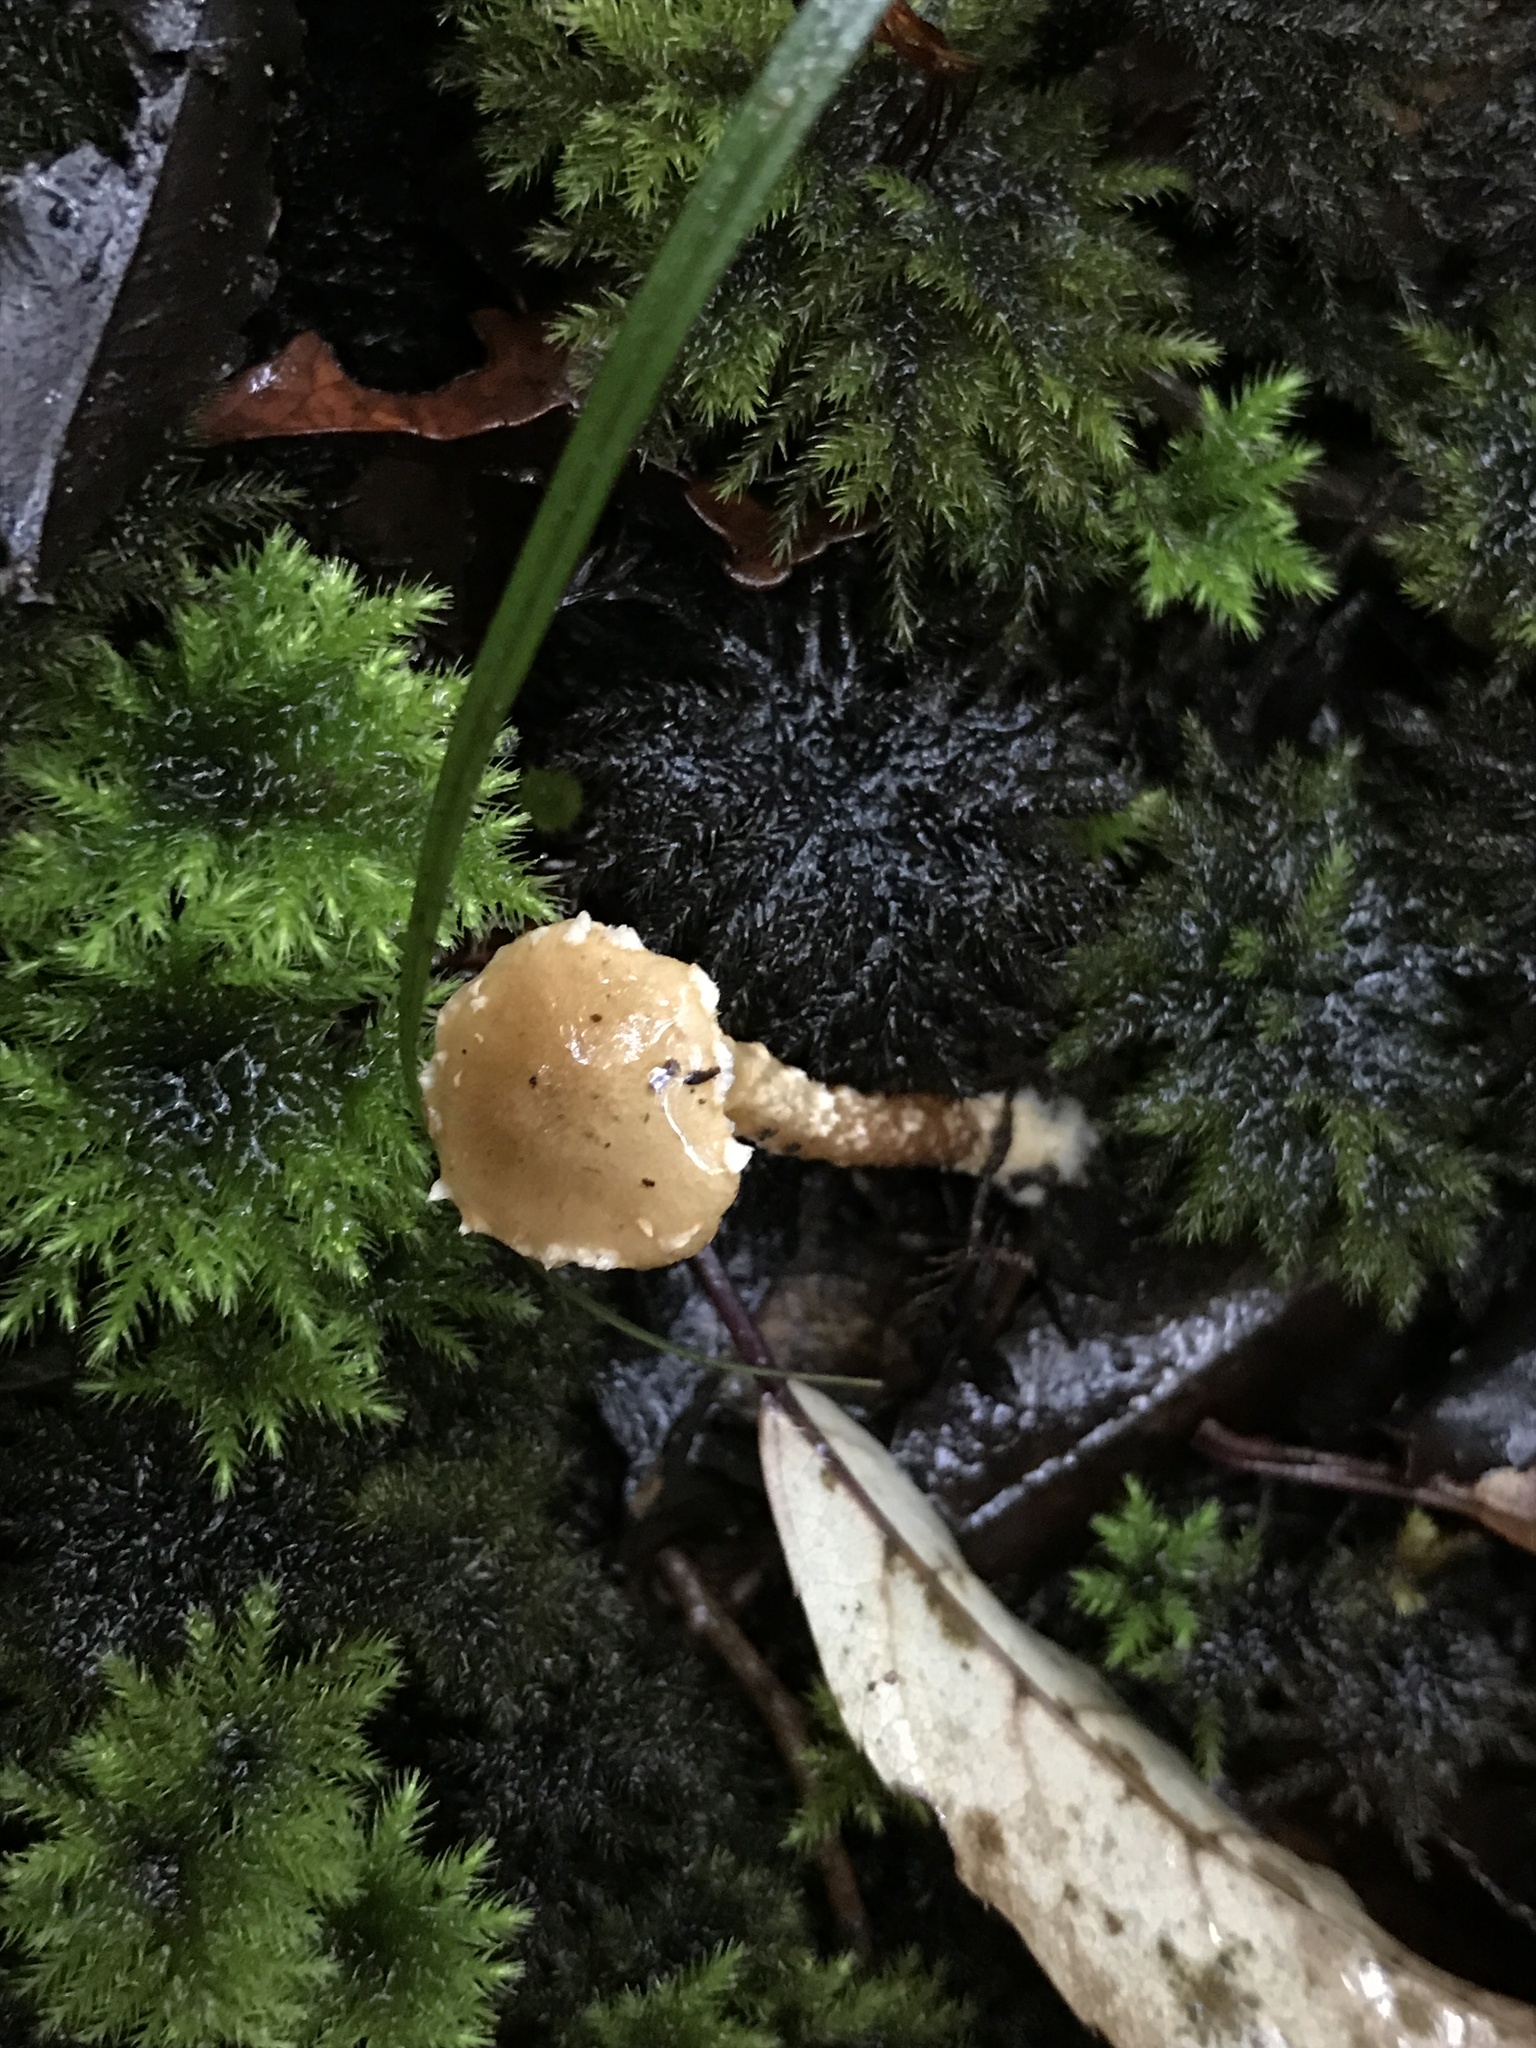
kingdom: Fungi
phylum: Basidiomycota
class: Agaricomycetes
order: Agaricales
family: Strophariaceae
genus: Pholiota
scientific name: Pholiota subflammans
